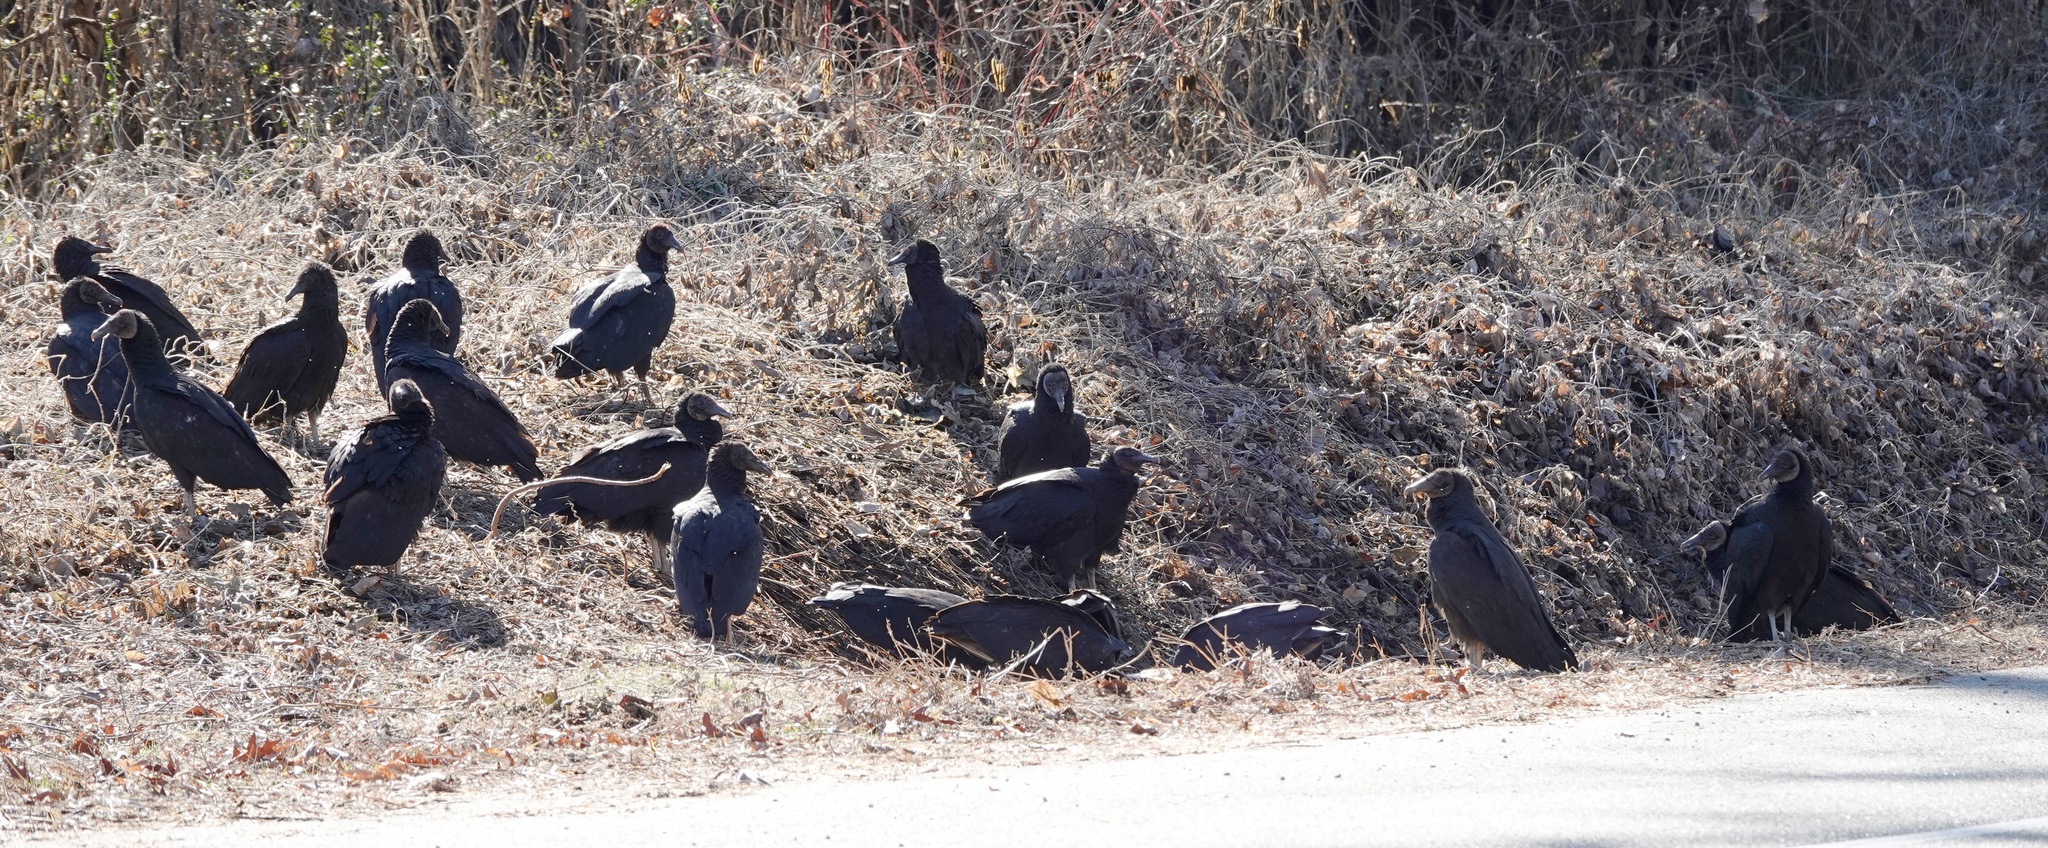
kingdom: Animalia
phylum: Chordata
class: Aves
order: Accipitriformes
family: Cathartidae
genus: Coragyps
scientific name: Coragyps atratus
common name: Black vulture
